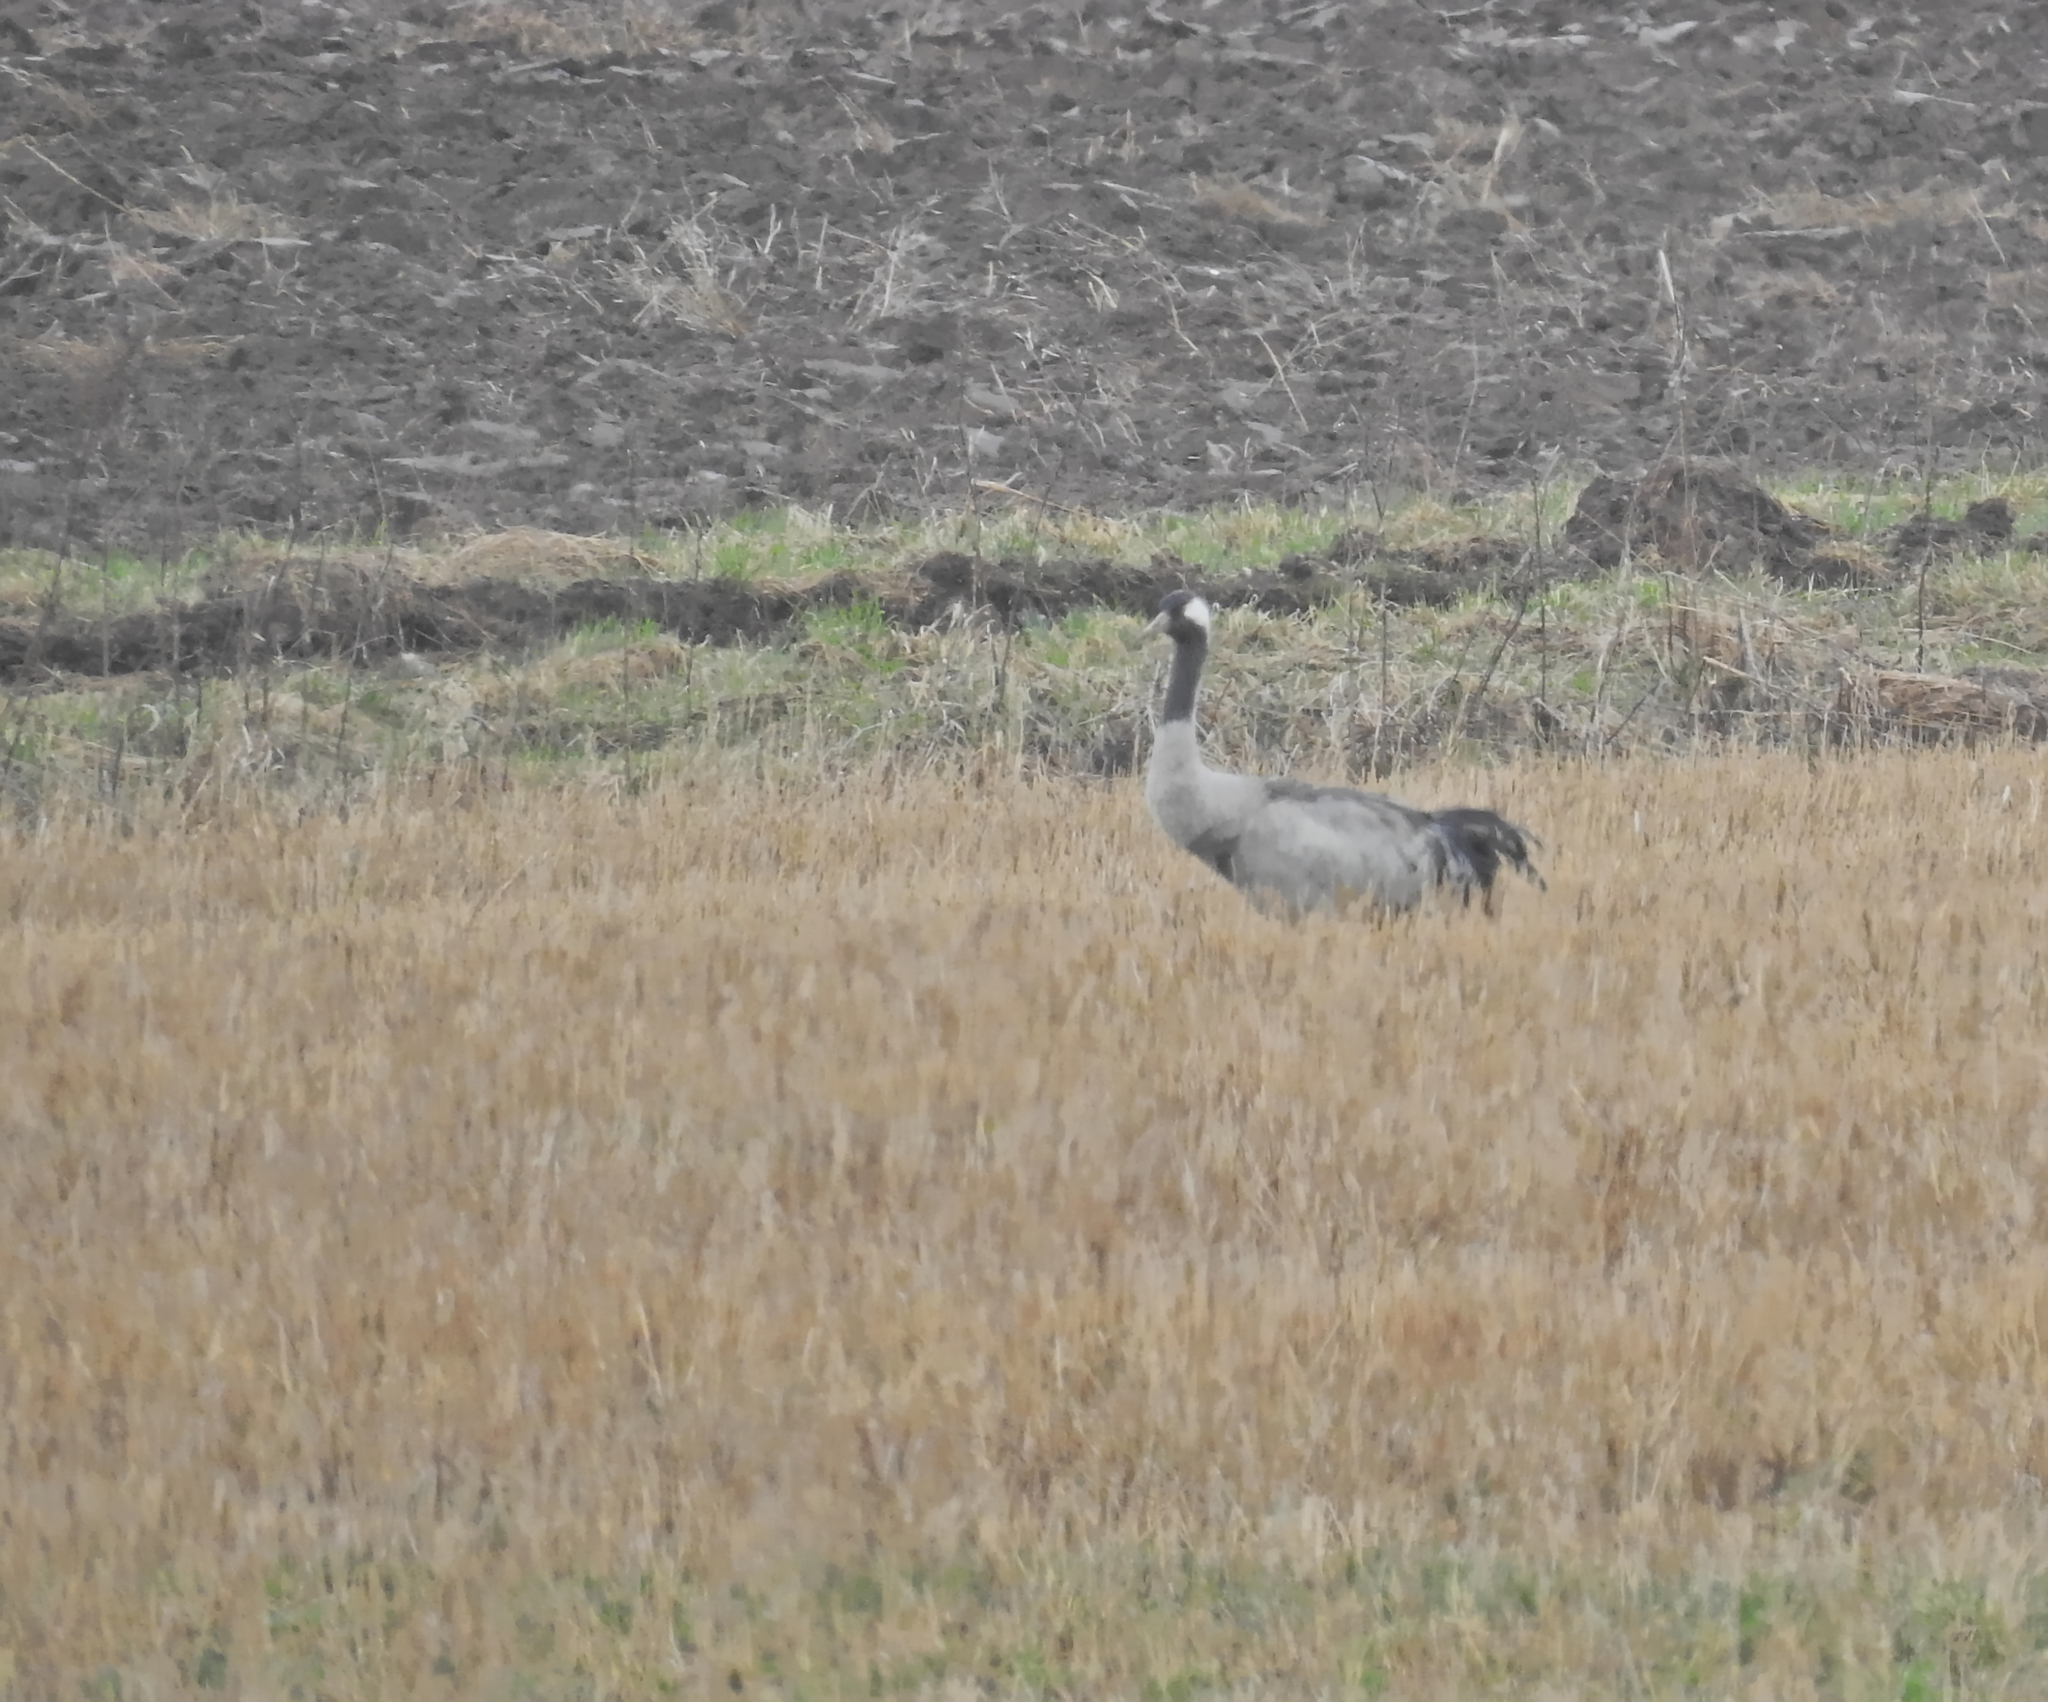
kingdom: Animalia
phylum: Chordata
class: Aves
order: Gruiformes
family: Gruidae
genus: Grus
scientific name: Grus grus
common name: Common crane
